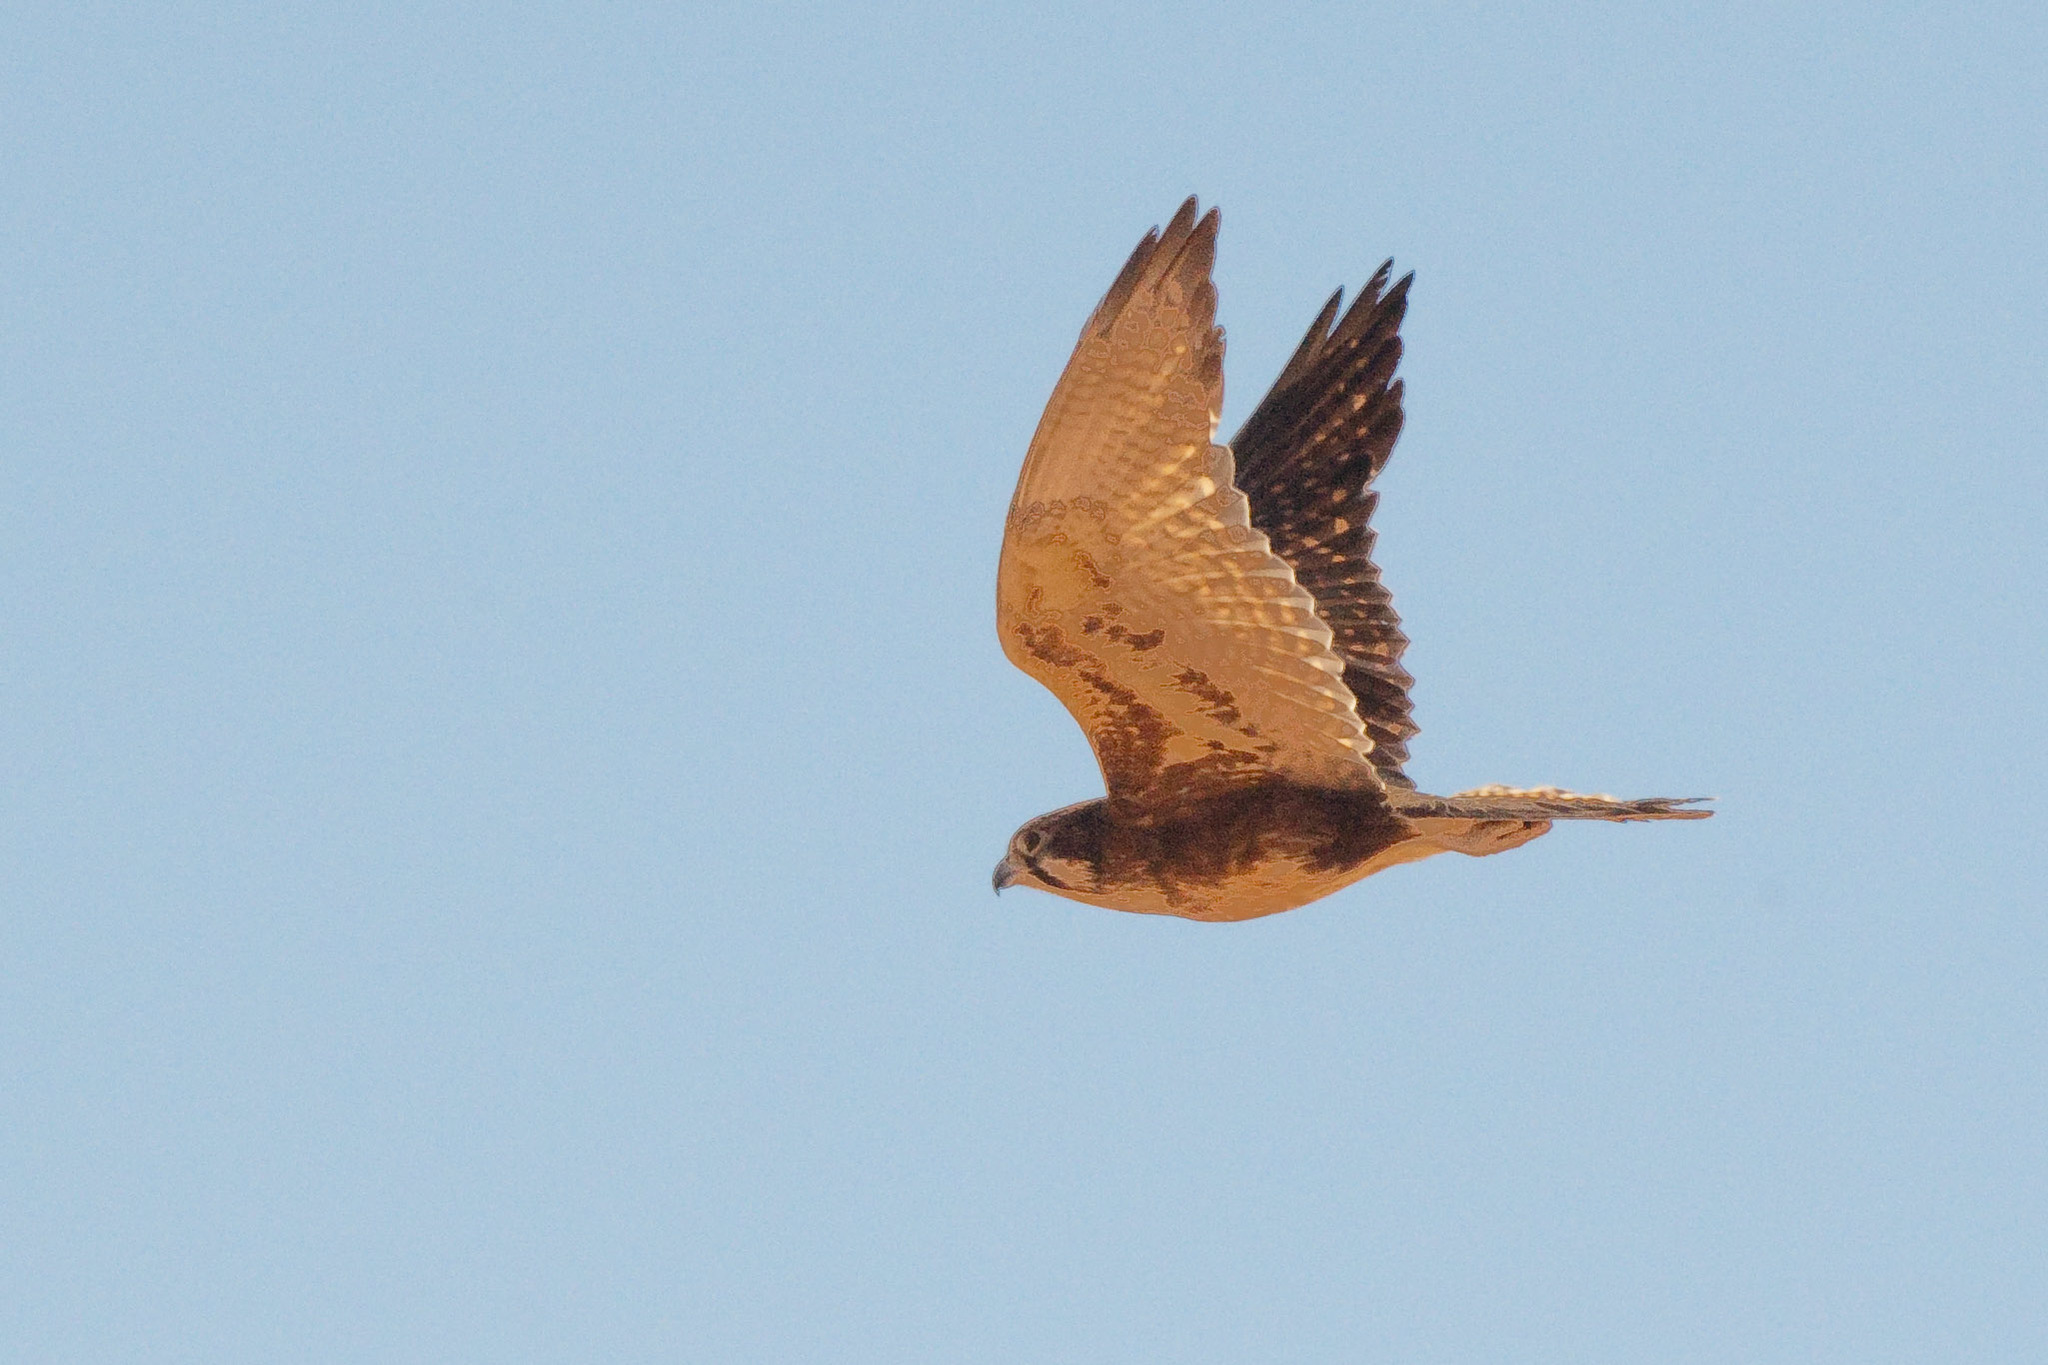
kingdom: Animalia
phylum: Chordata
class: Aves
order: Falconiformes
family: Falconidae
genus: Falco
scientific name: Falco berigora
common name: Brown falcon
